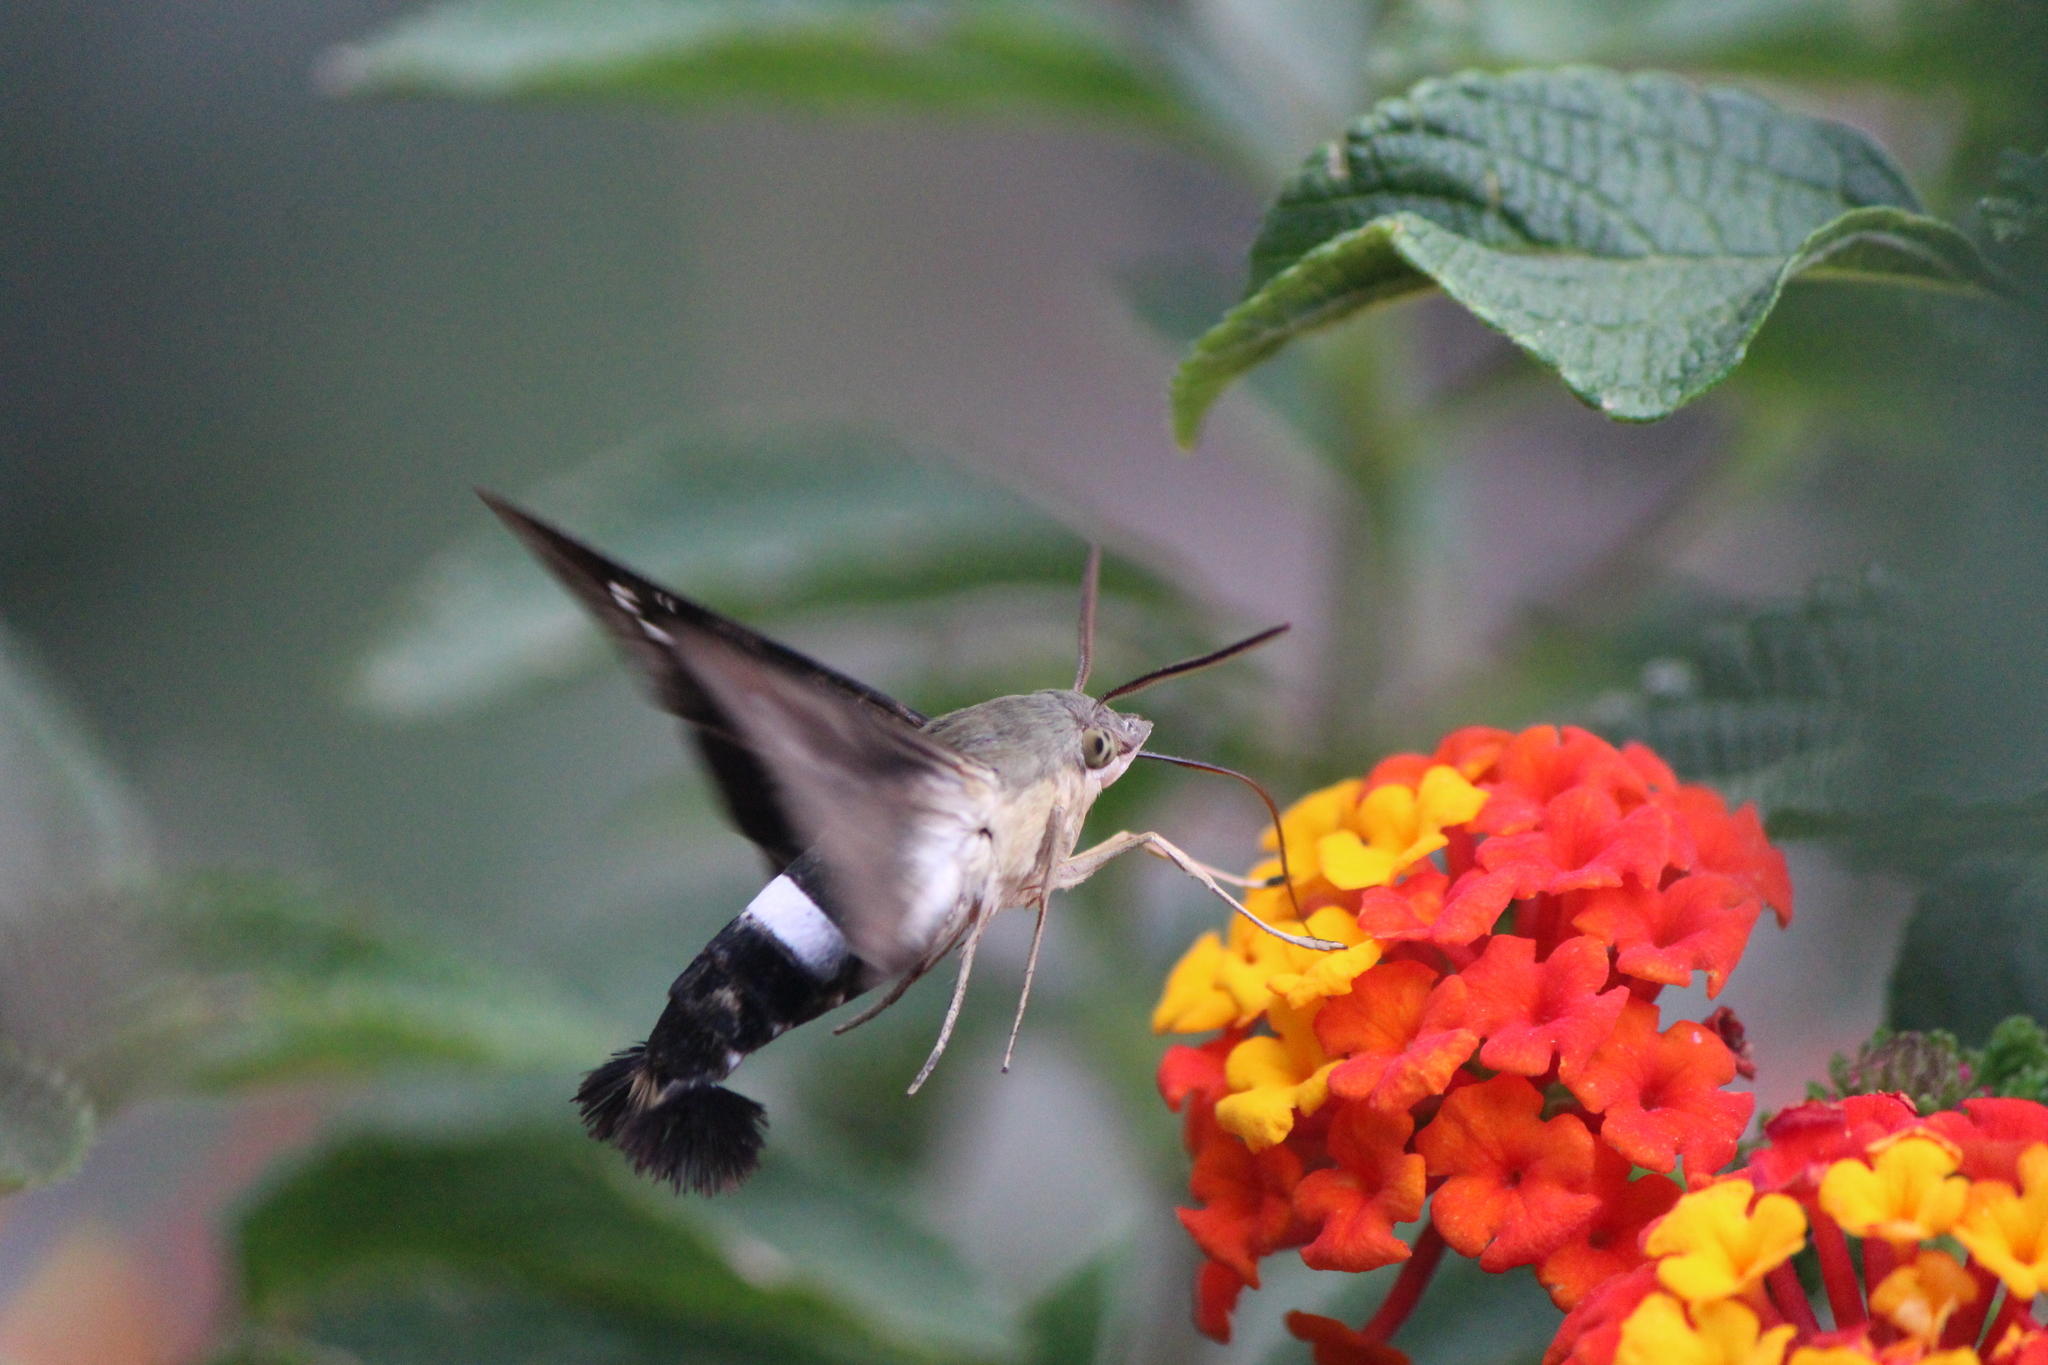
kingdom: Animalia
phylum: Arthropoda
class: Insecta
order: Lepidoptera
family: Sphingidae
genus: Aellopos
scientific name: Aellopos clavipes
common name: Clavipes sphinx
